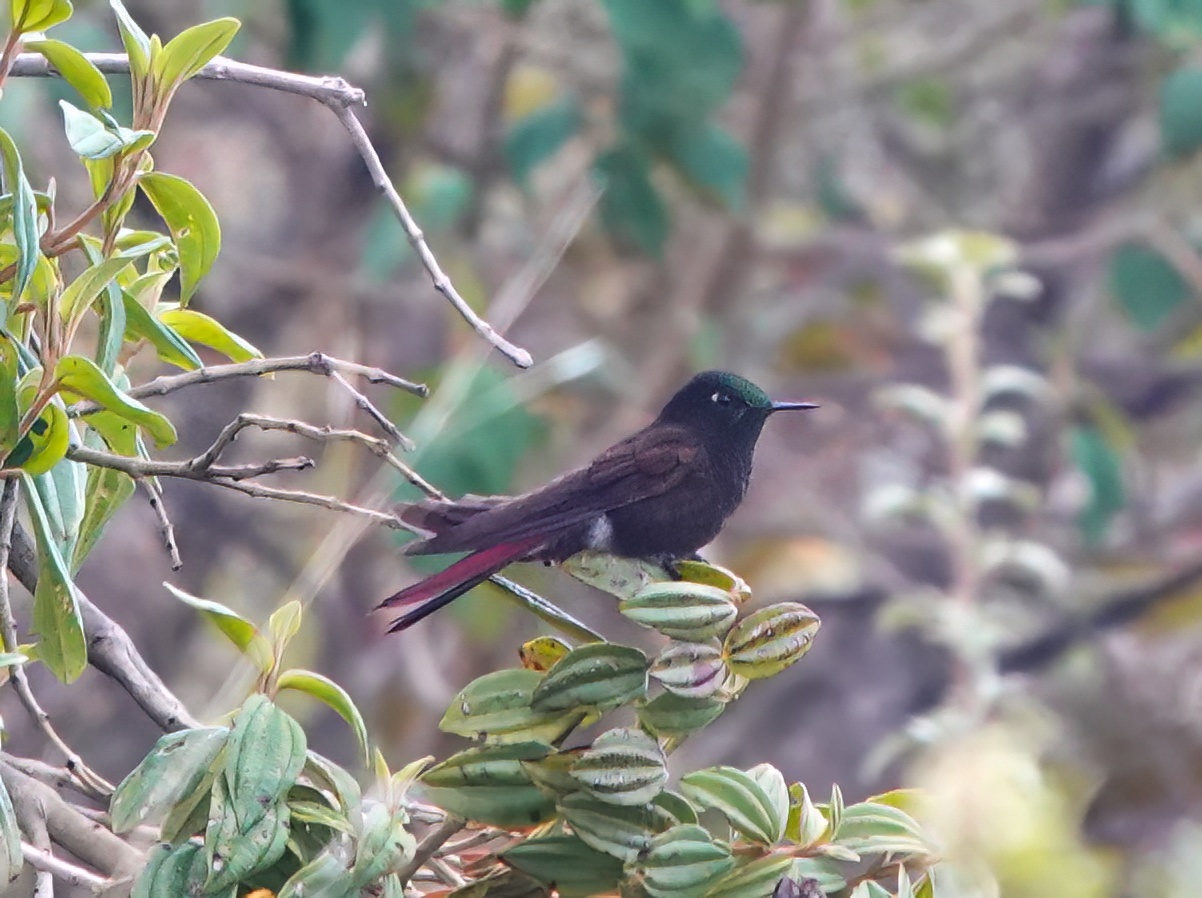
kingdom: Animalia
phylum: Chordata
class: Aves
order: Apodiformes
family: Trochilidae
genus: Metallura
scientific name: Metallura iracunda
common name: Perija metaltail
